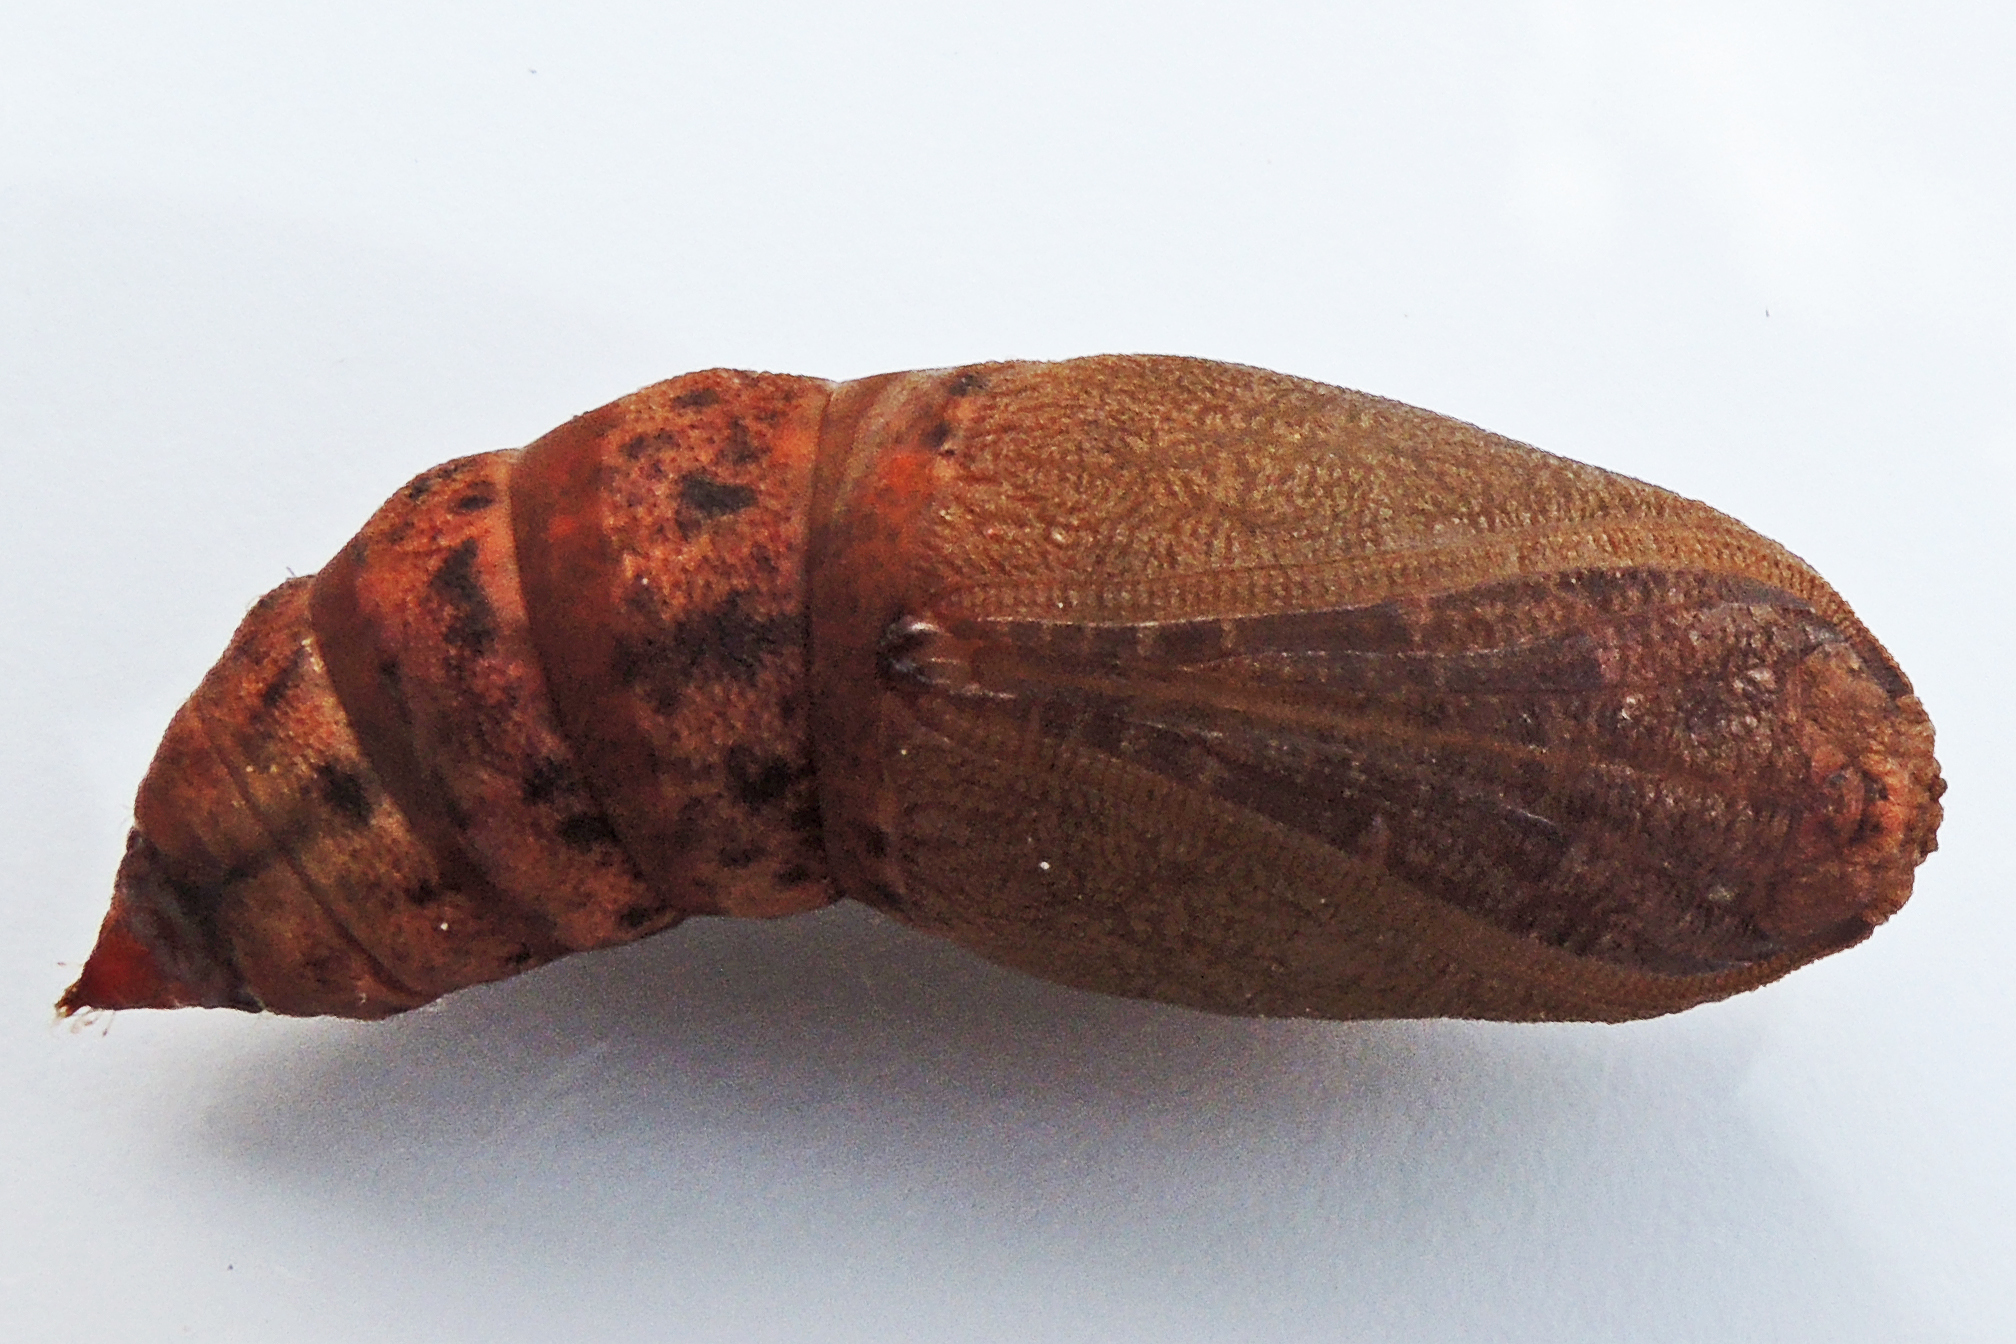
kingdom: Animalia
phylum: Arthropoda
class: Insecta
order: Lepidoptera
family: Geometridae
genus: Eutrapela
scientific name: Eutrapela clemataria
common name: Curved-toothed geometer
